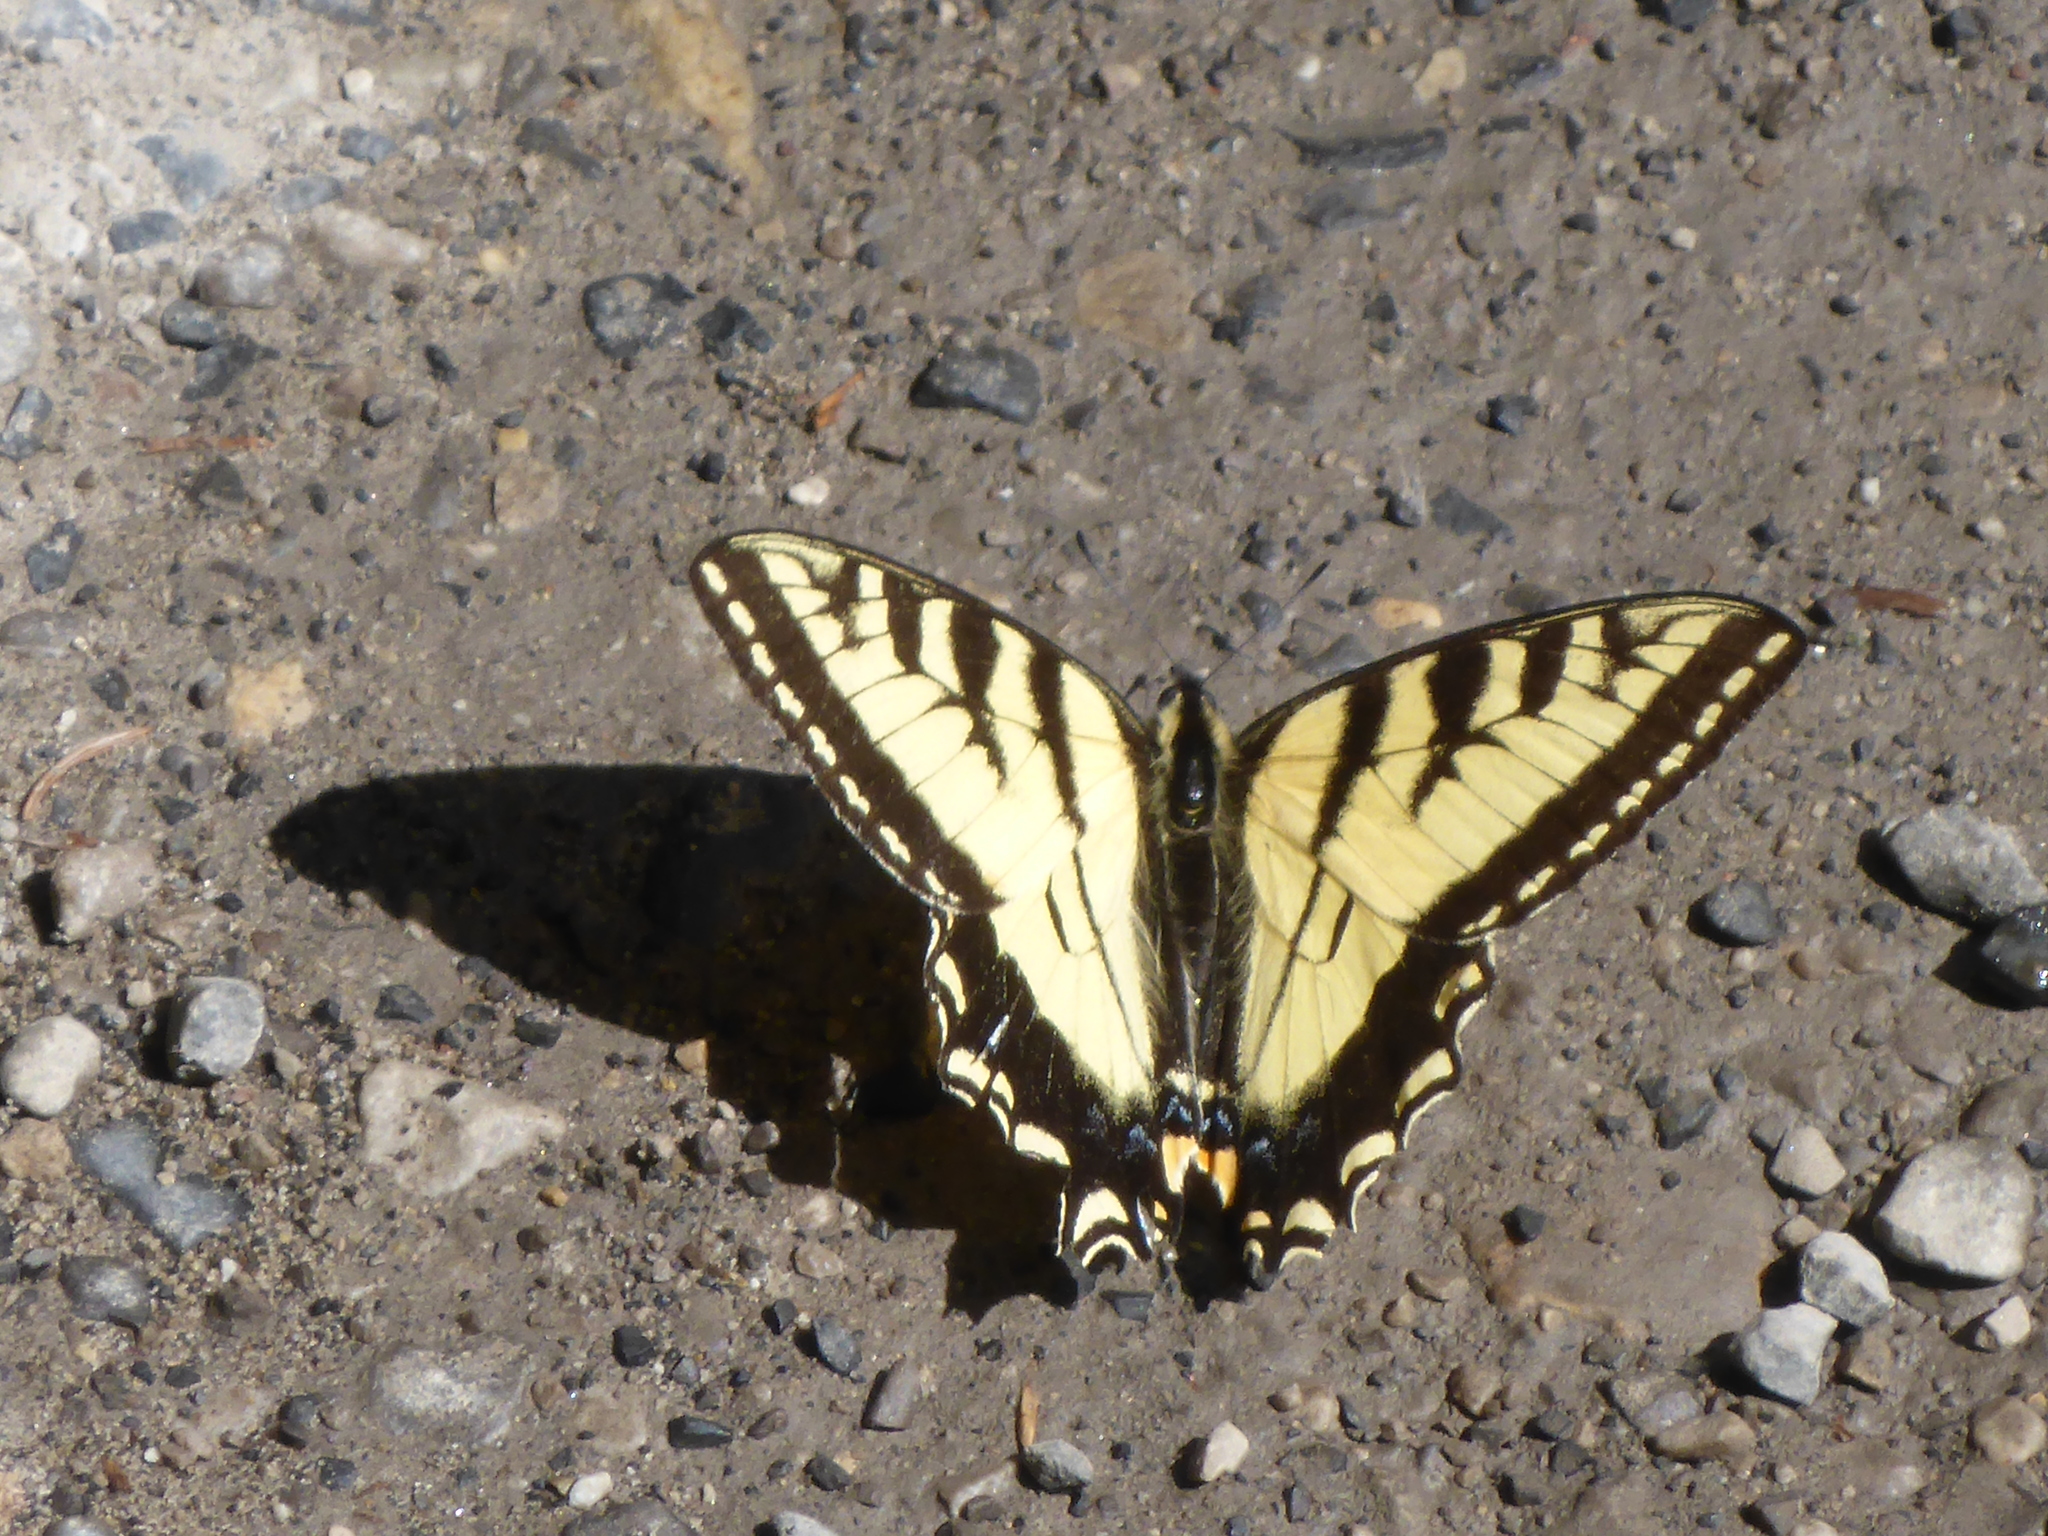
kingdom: Animalia
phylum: Arthropoda
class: Insecta
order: Lepidoptera
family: Papilionidae
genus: Papilio
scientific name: Papilio canadensis
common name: Canadian tiger swallowtail
